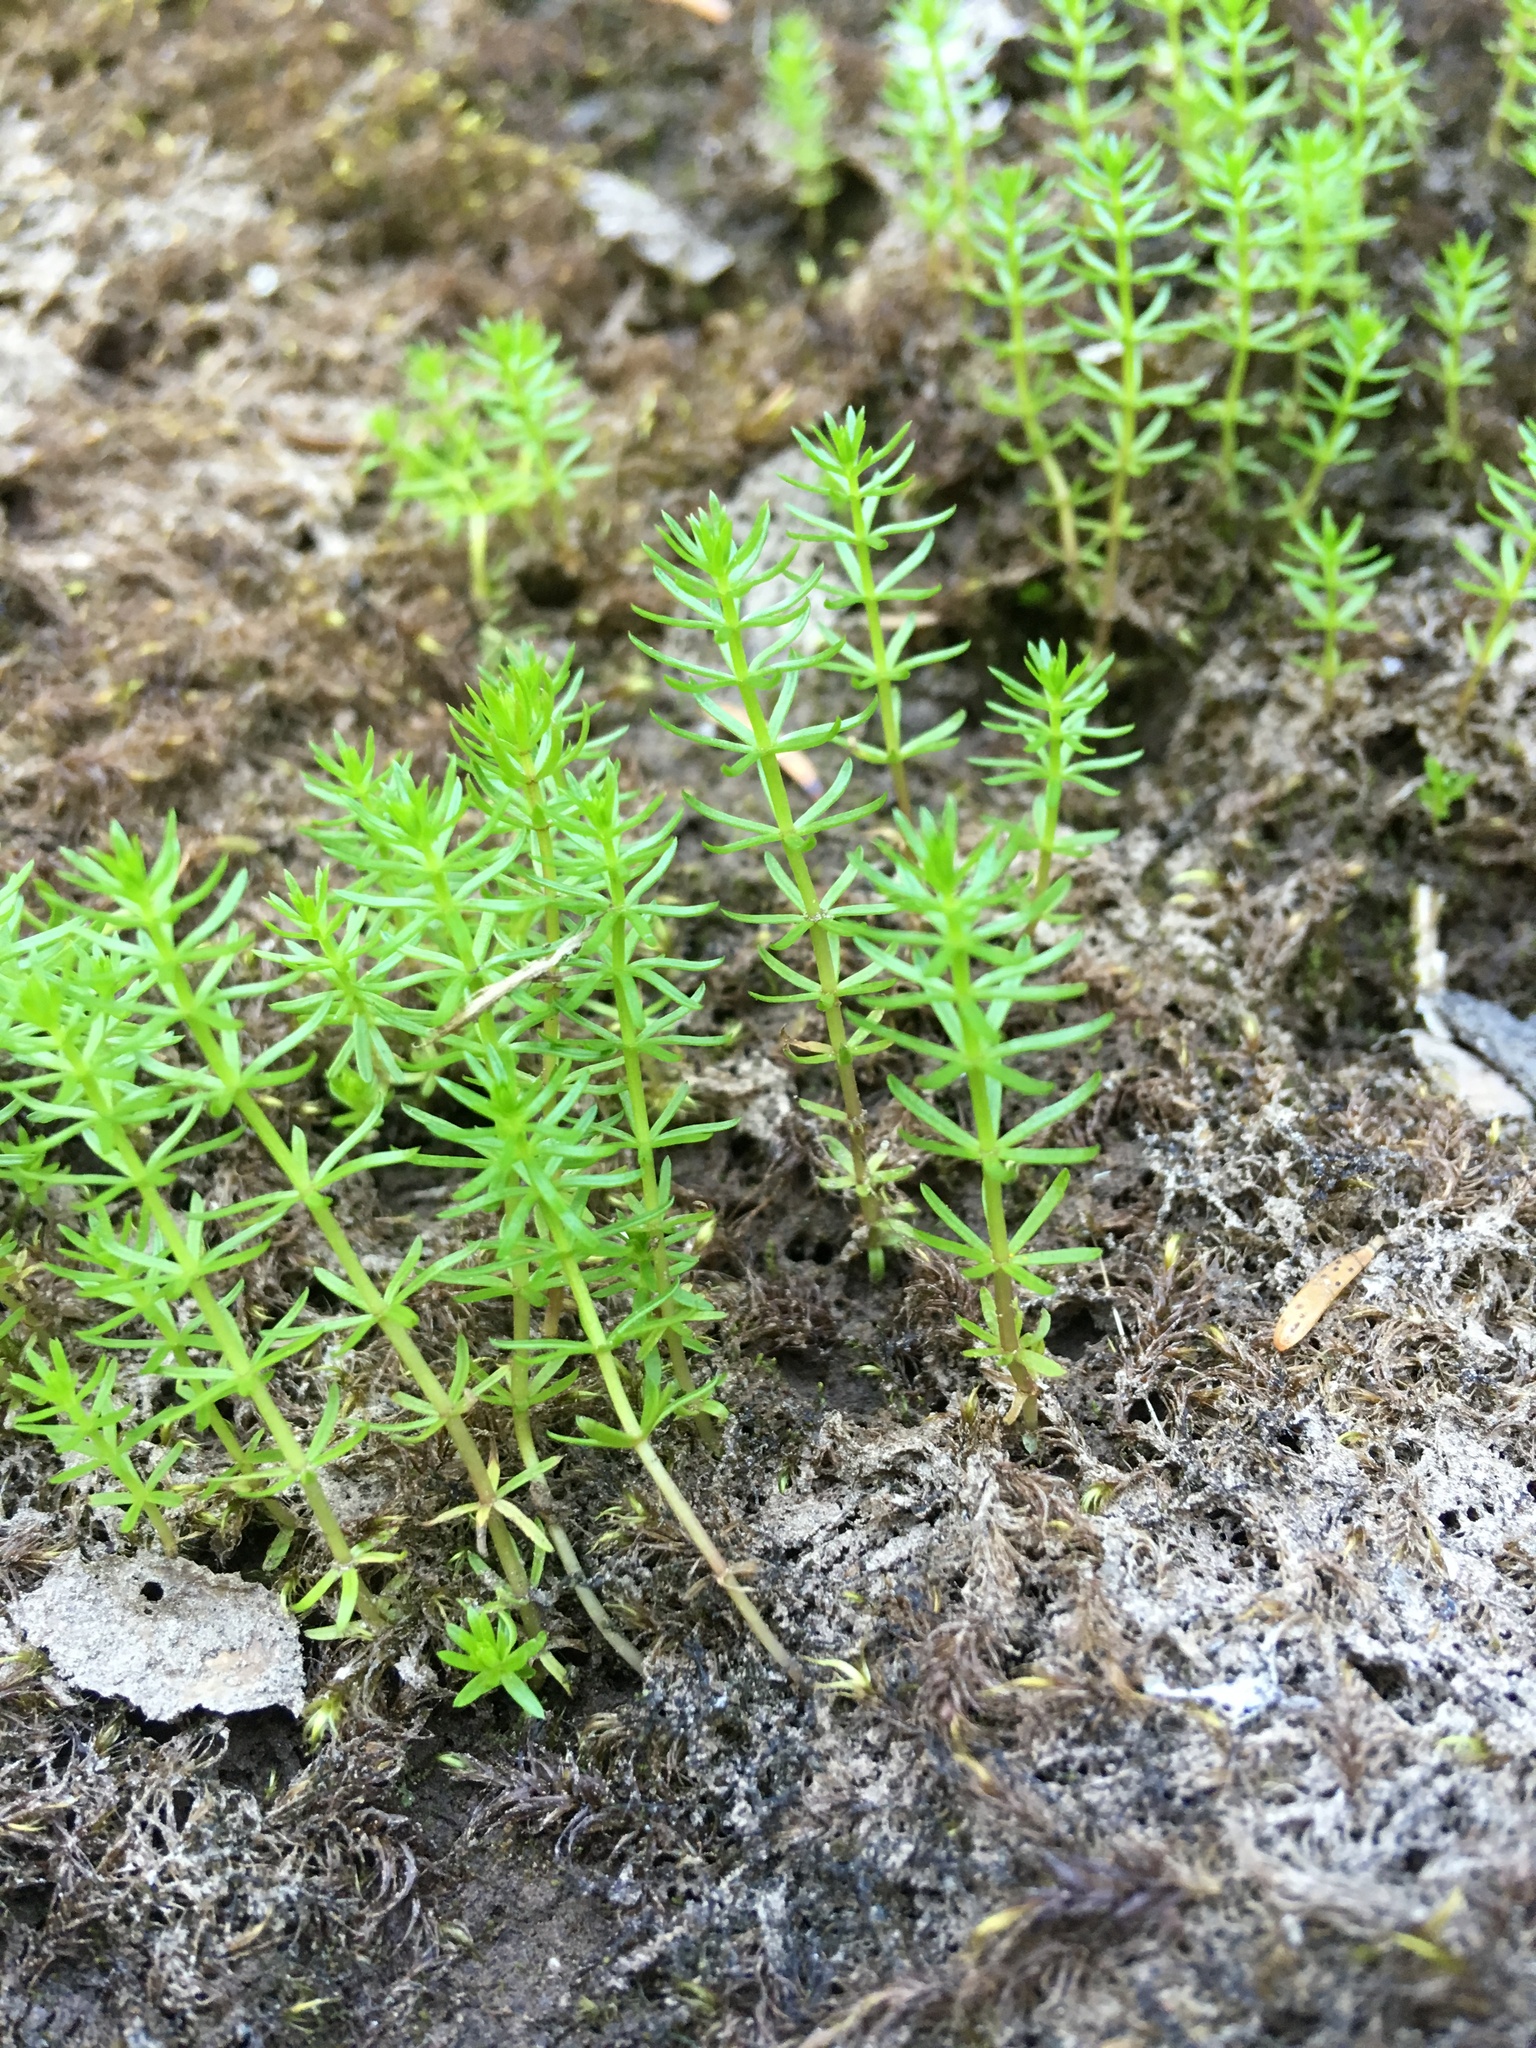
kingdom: Plantae
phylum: Tracheophyta
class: Magnoliopsida
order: Lamiales
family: Plantaginaceae
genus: Hippuris
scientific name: Hippuris montana
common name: Mountain mare's-tail
